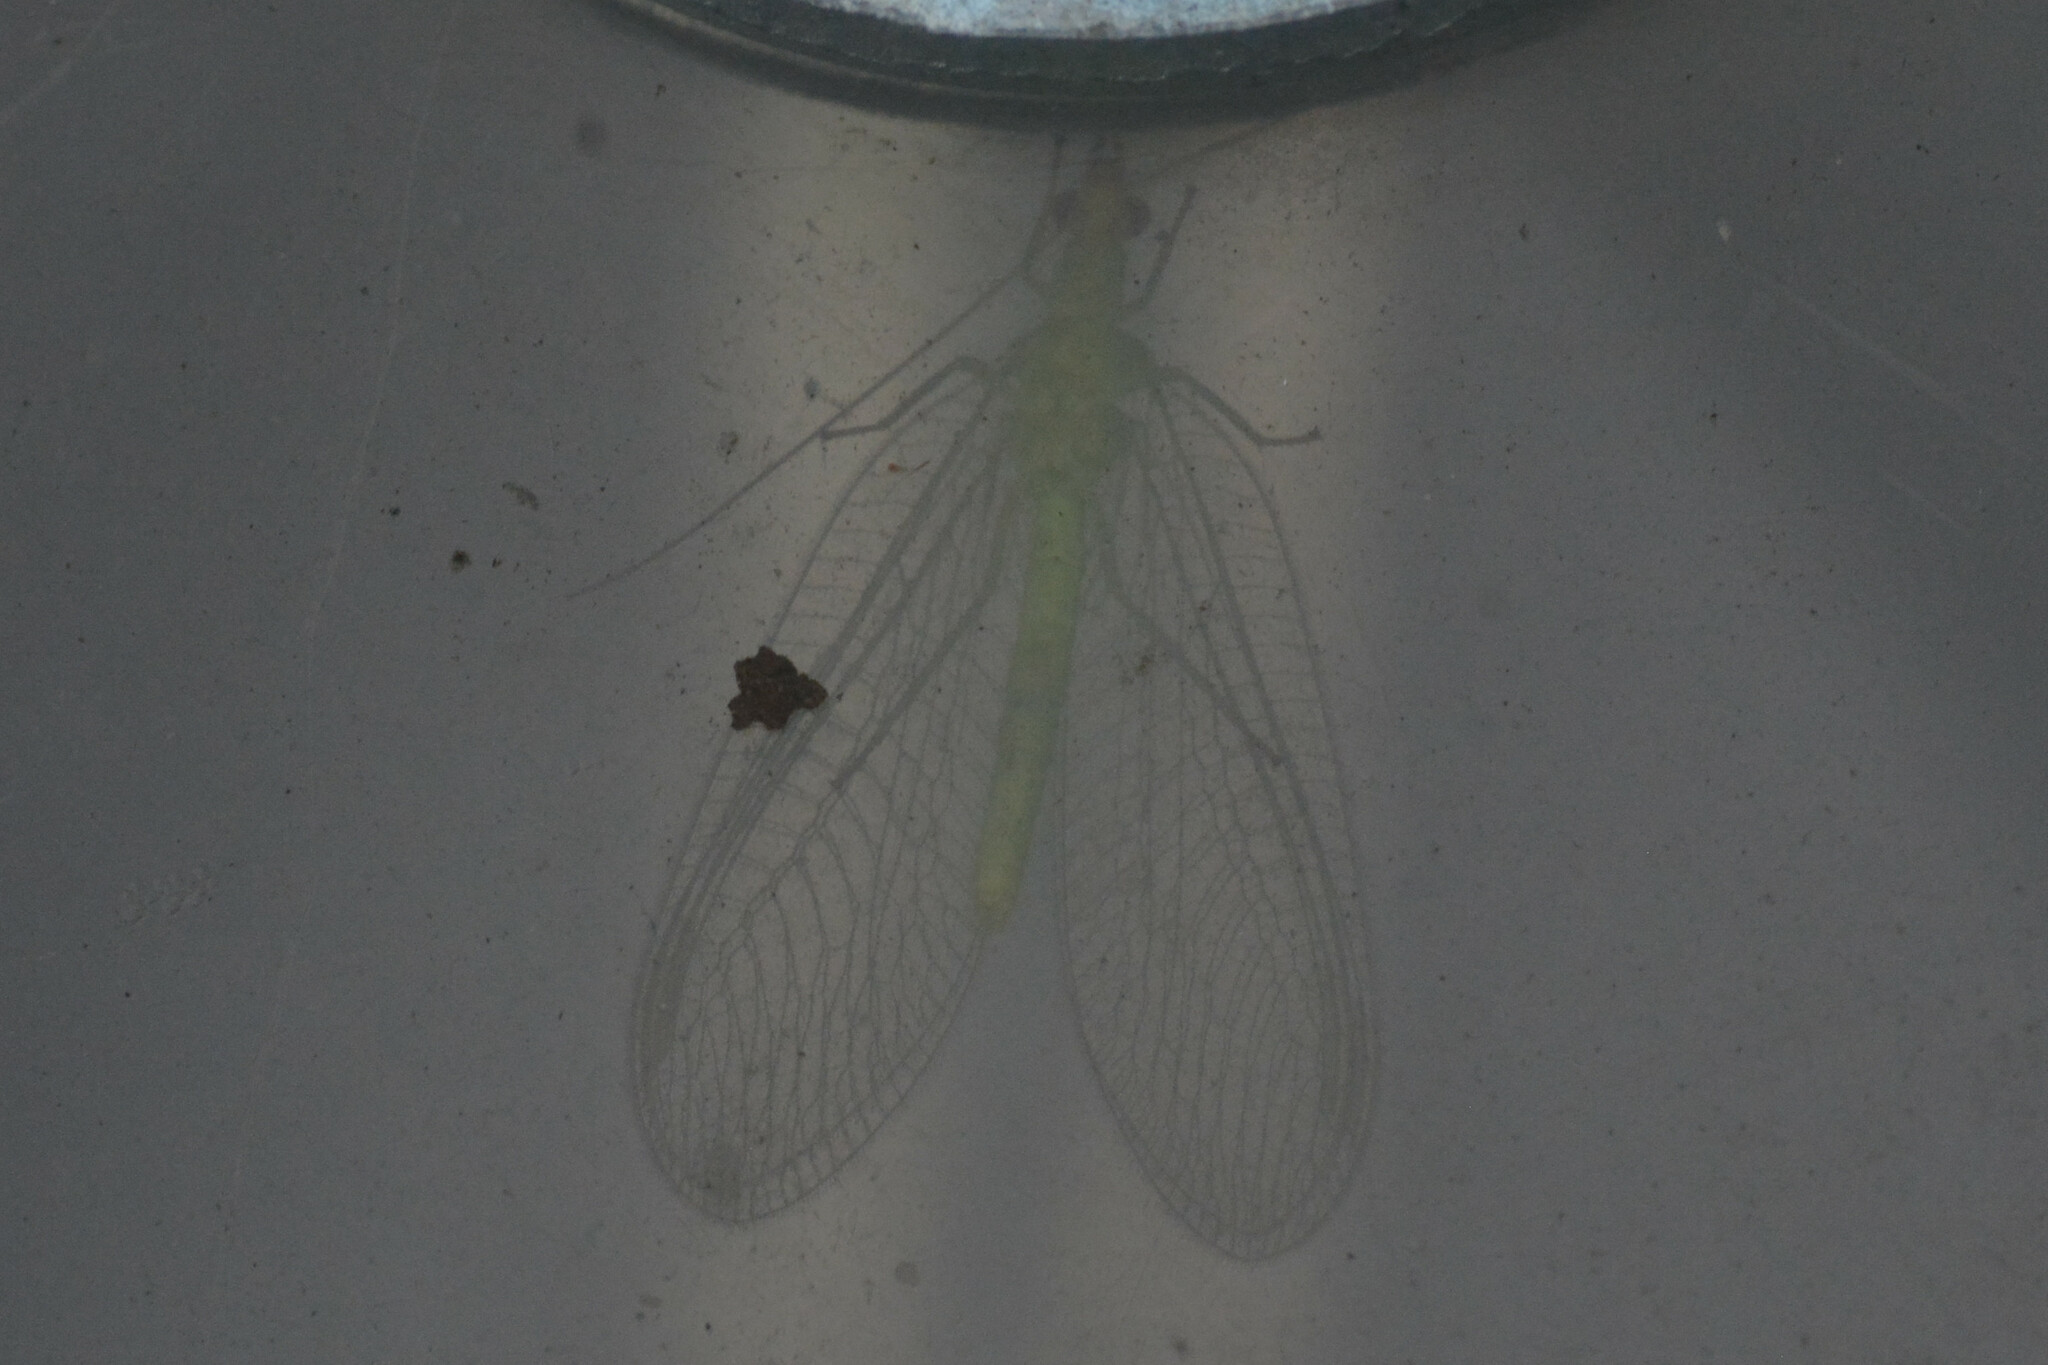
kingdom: Animalia
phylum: Arthropoda
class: Insecta
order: Neuroptera
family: Chrysopidae
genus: Chrysoperla
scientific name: Chrysoperla
